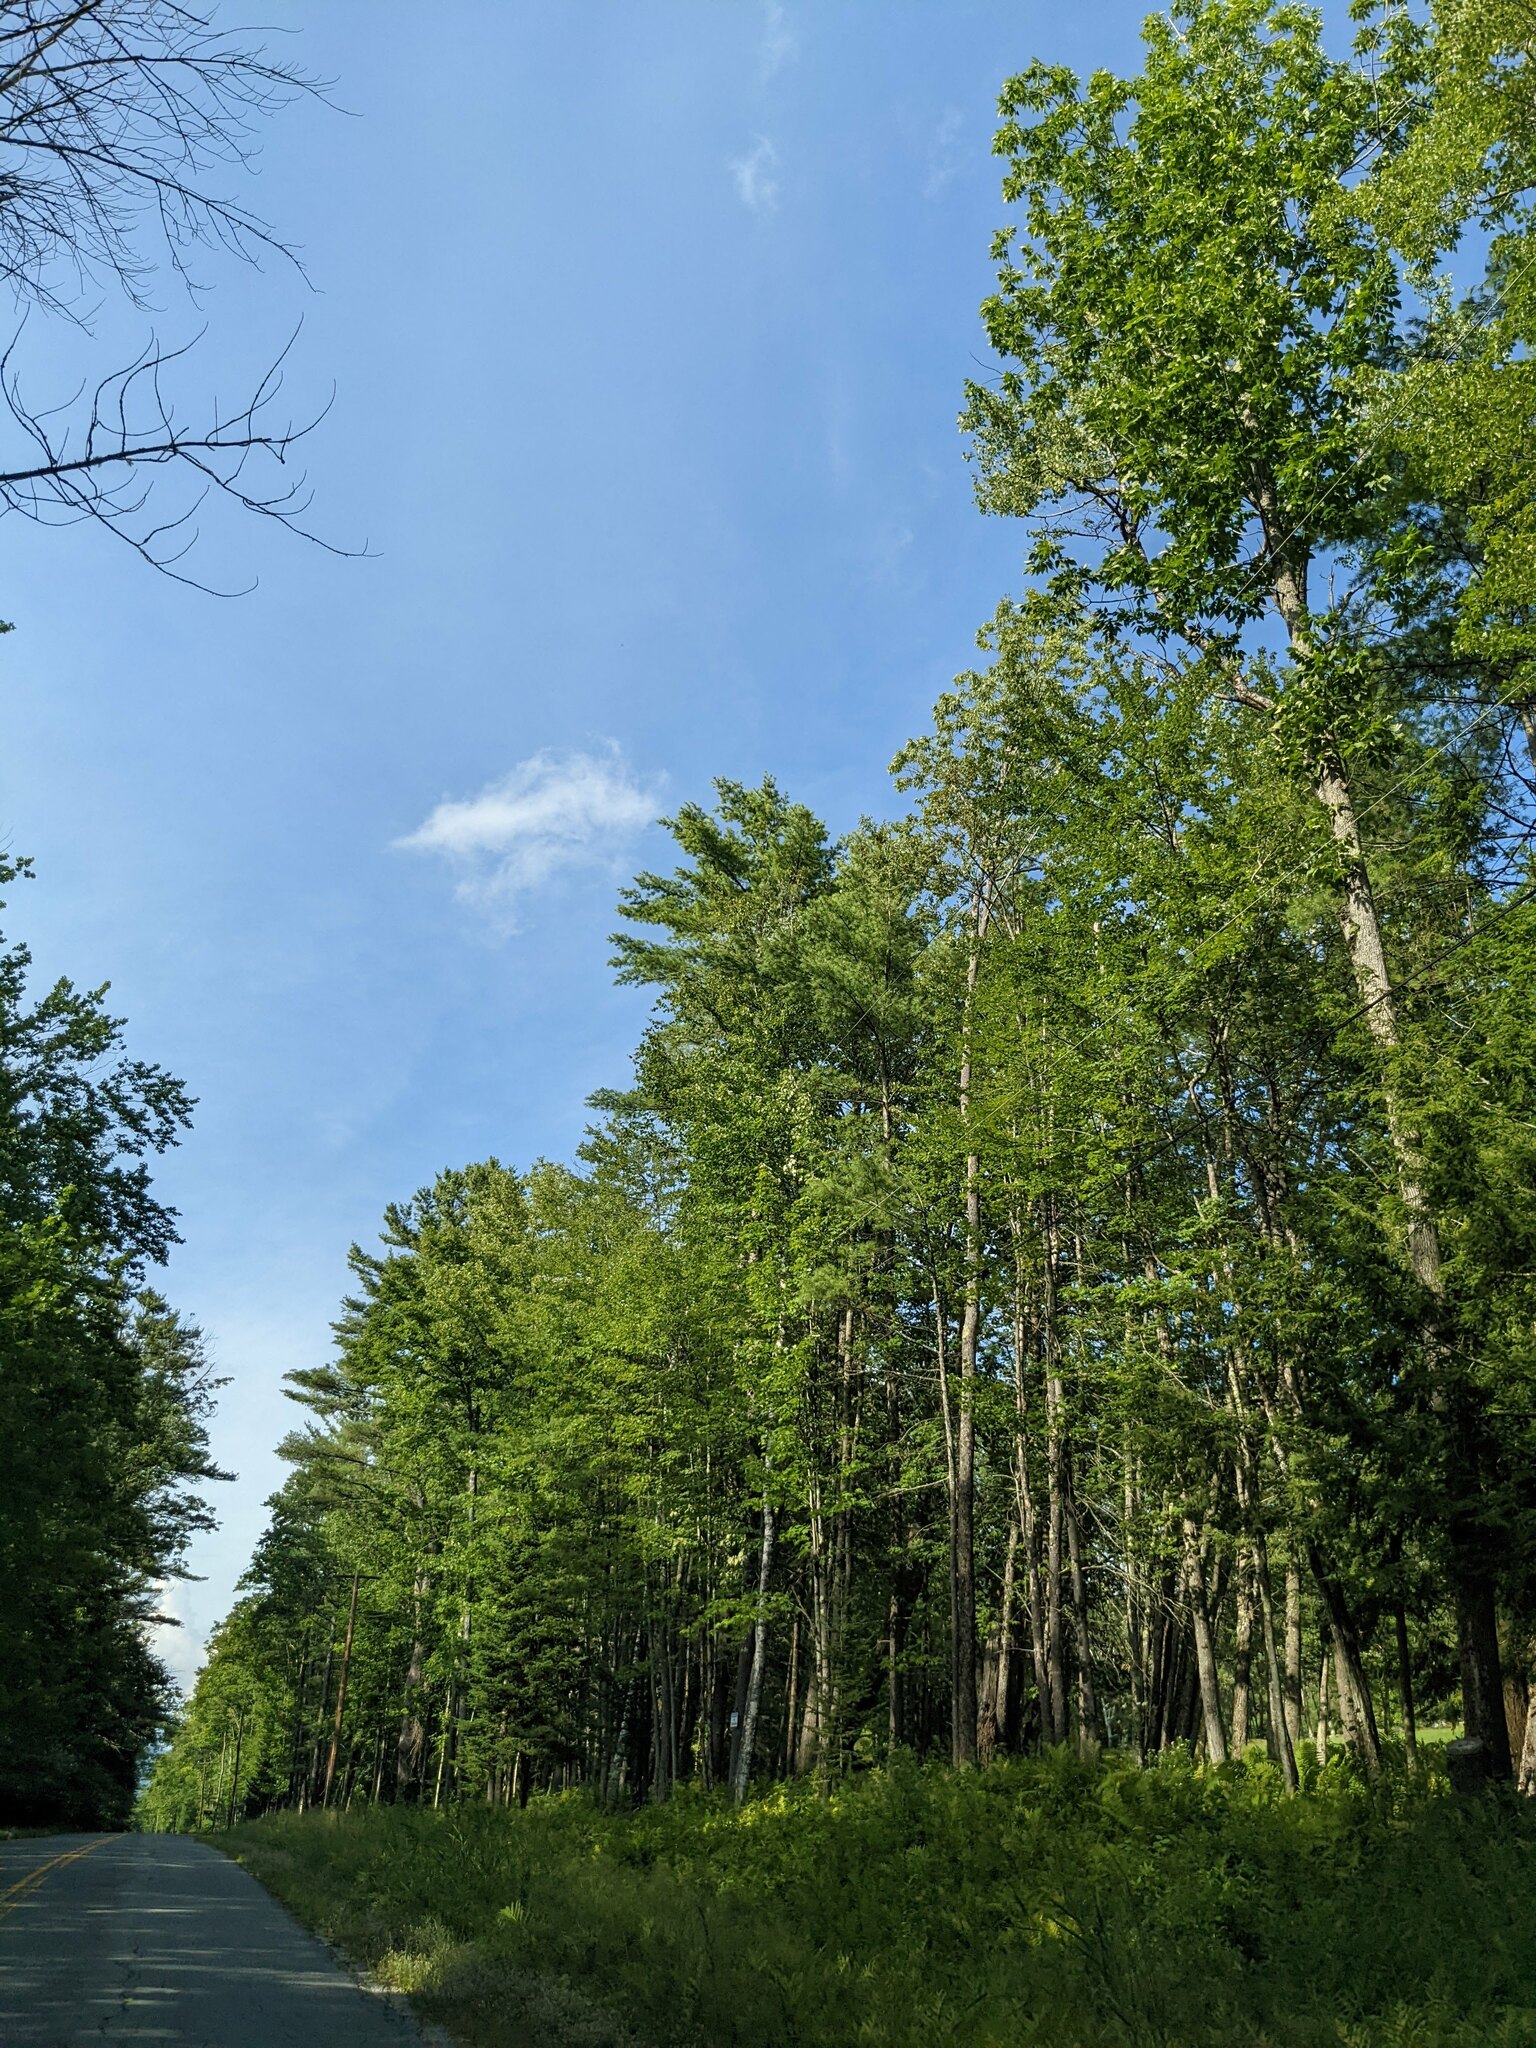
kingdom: Plantae
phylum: Tracheophyta
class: Pinopsida
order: Pinales
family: Pinaceae
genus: Pinus
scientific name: Pinus strobus
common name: Weymouth pine
